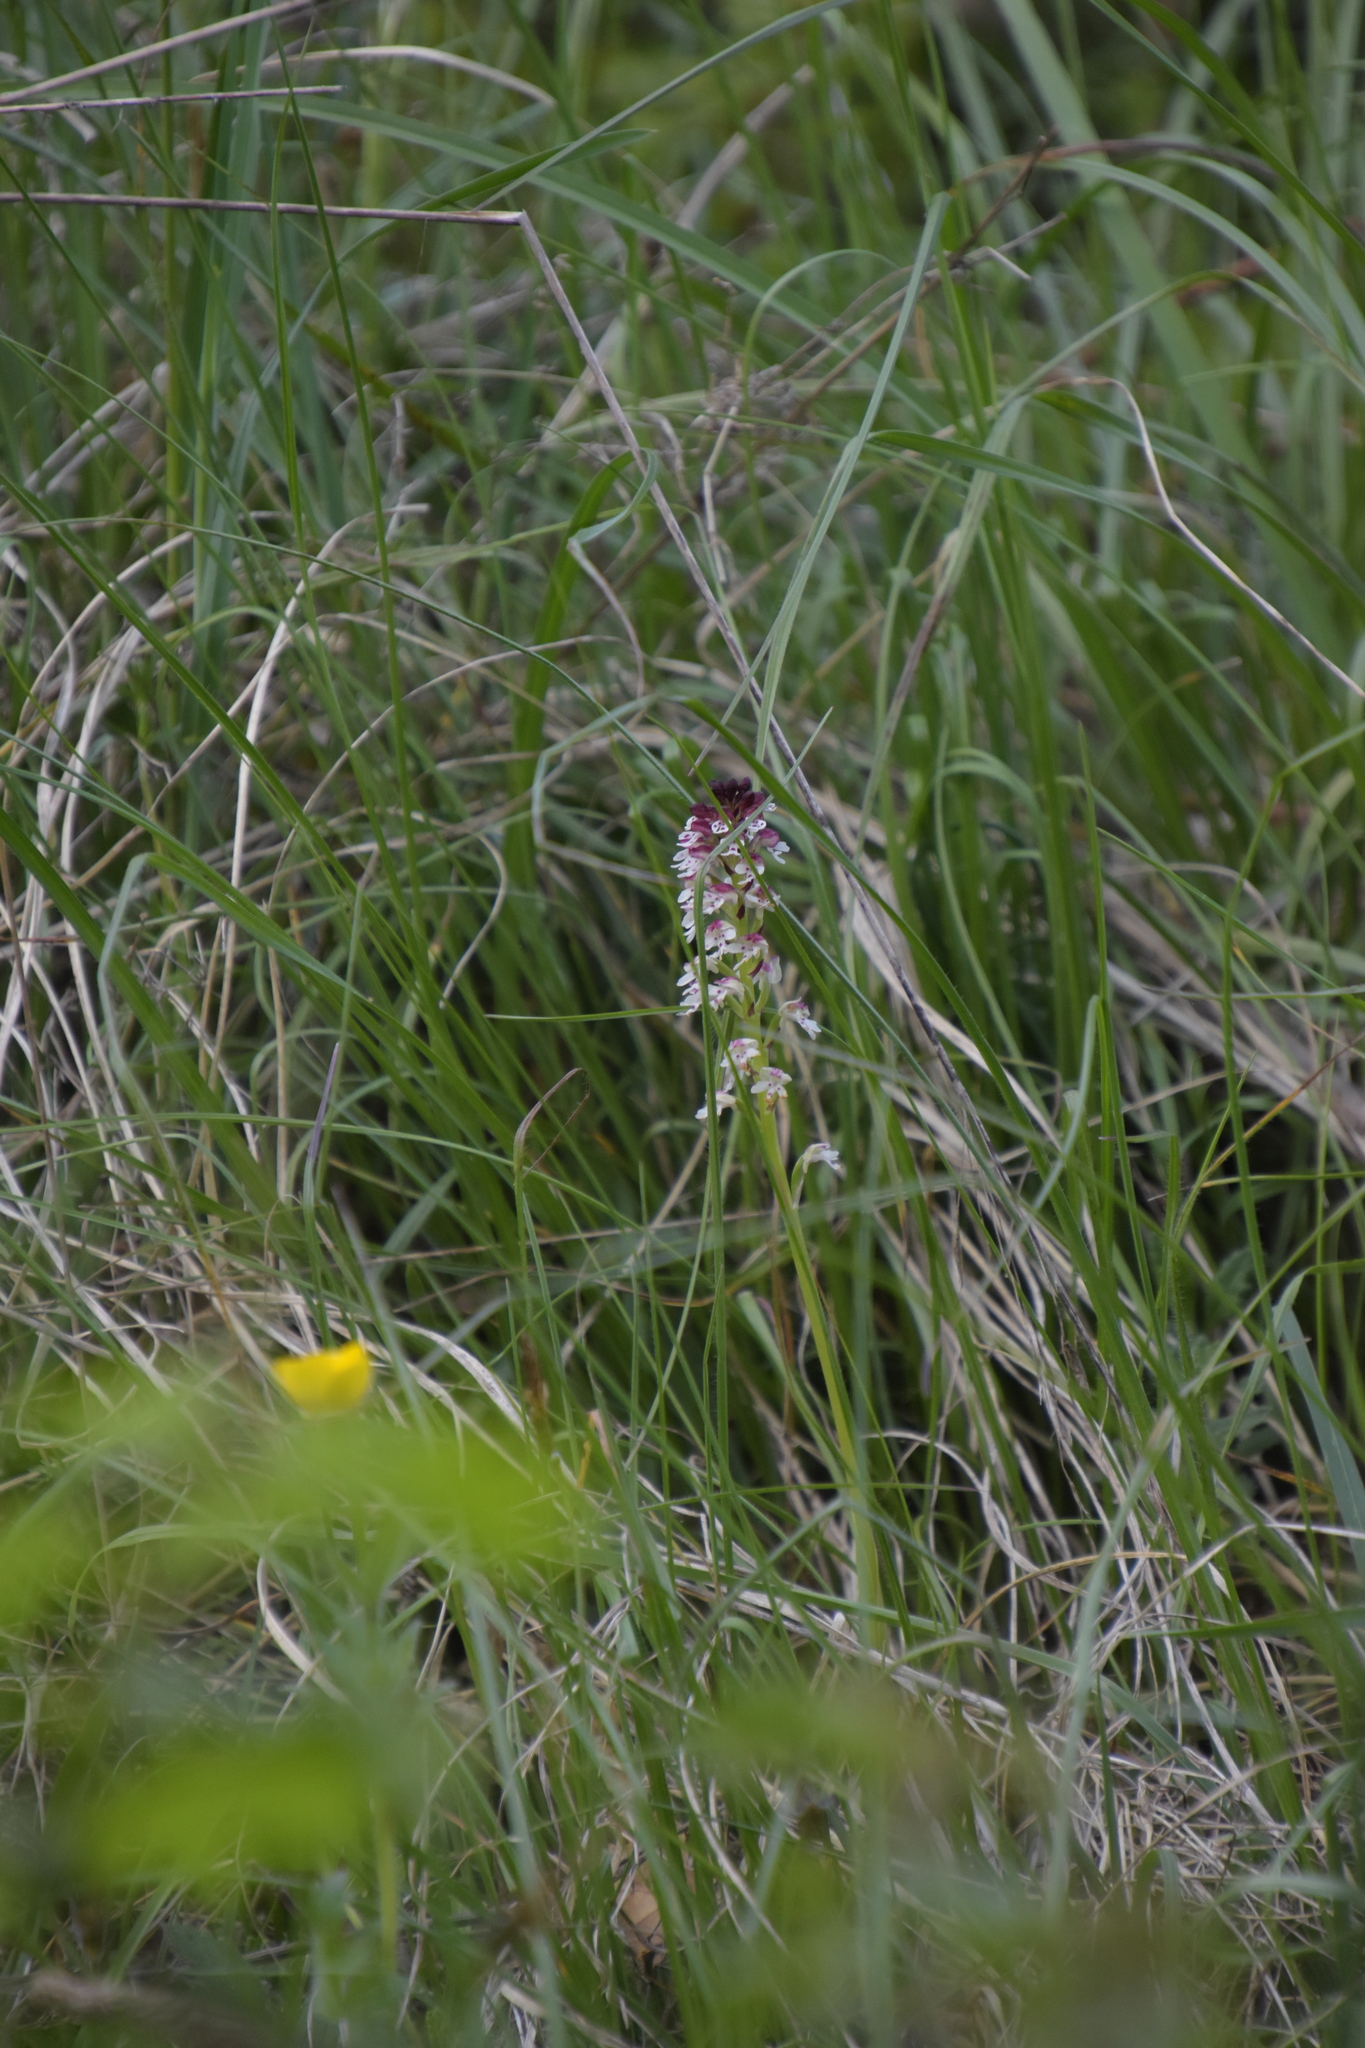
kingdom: Plantae
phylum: Tracheophyta
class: Liliopsida
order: Asparagales
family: Orchidaceae
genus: Neotinea
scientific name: Neotinea ustulata
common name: Burnt orchid
